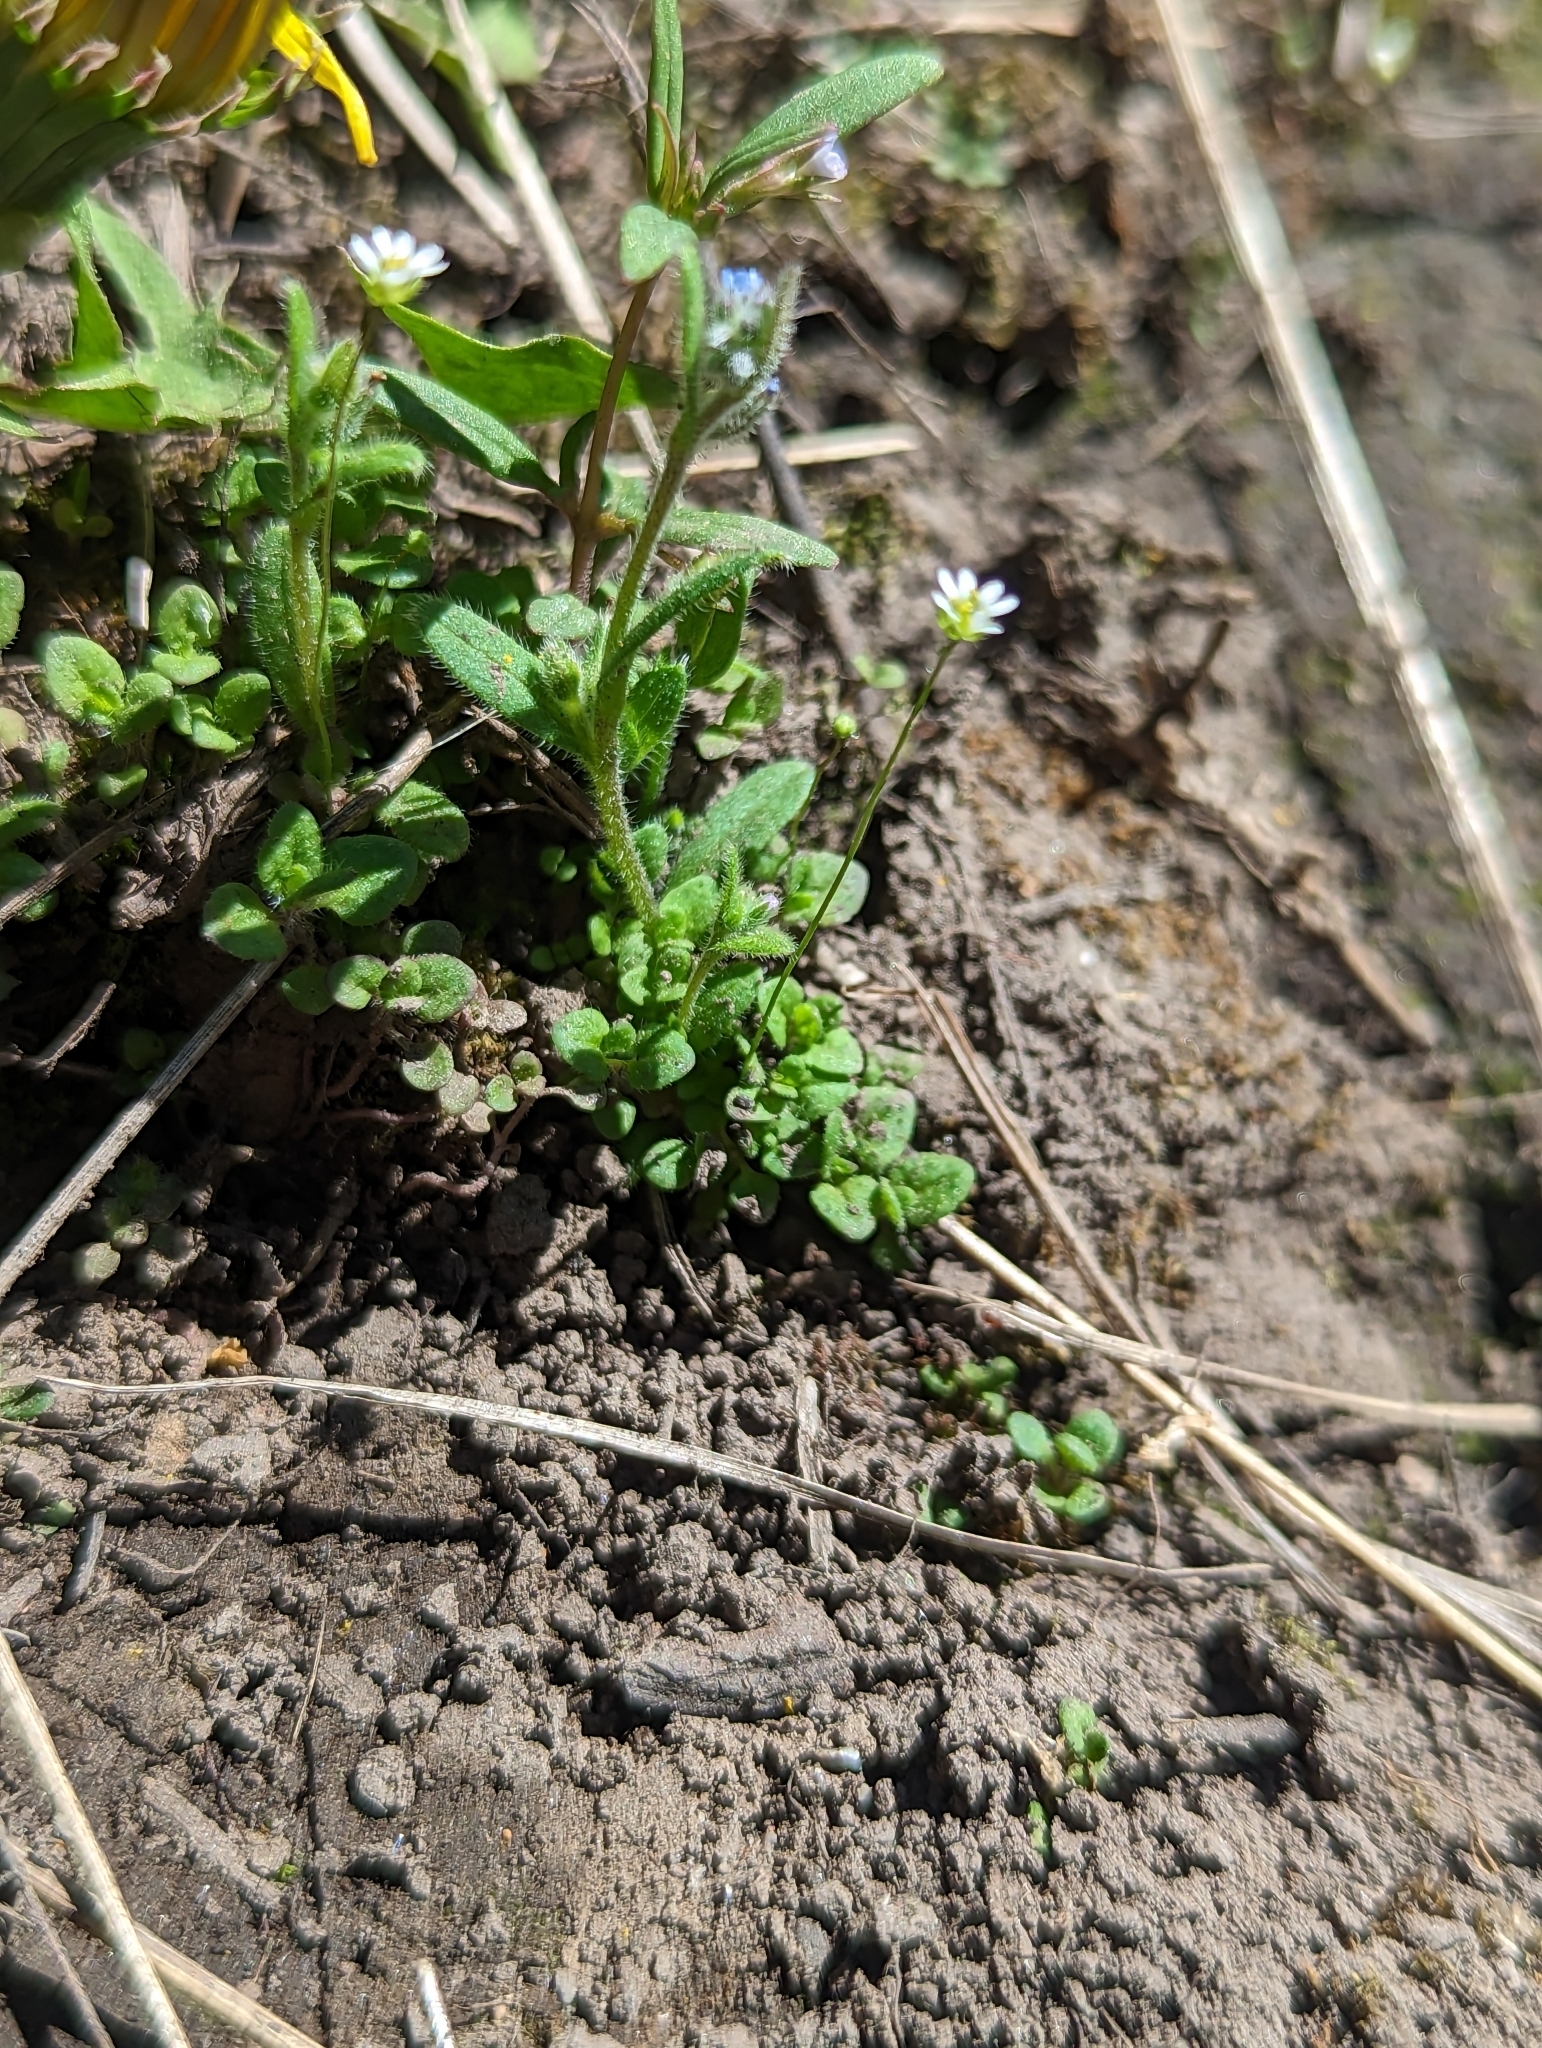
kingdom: Plantae
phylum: Tracheophyta
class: Magnoliopsida
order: Brassicales
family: Brassicaceae
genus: Draba
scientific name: Draba verna
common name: Spring draba
